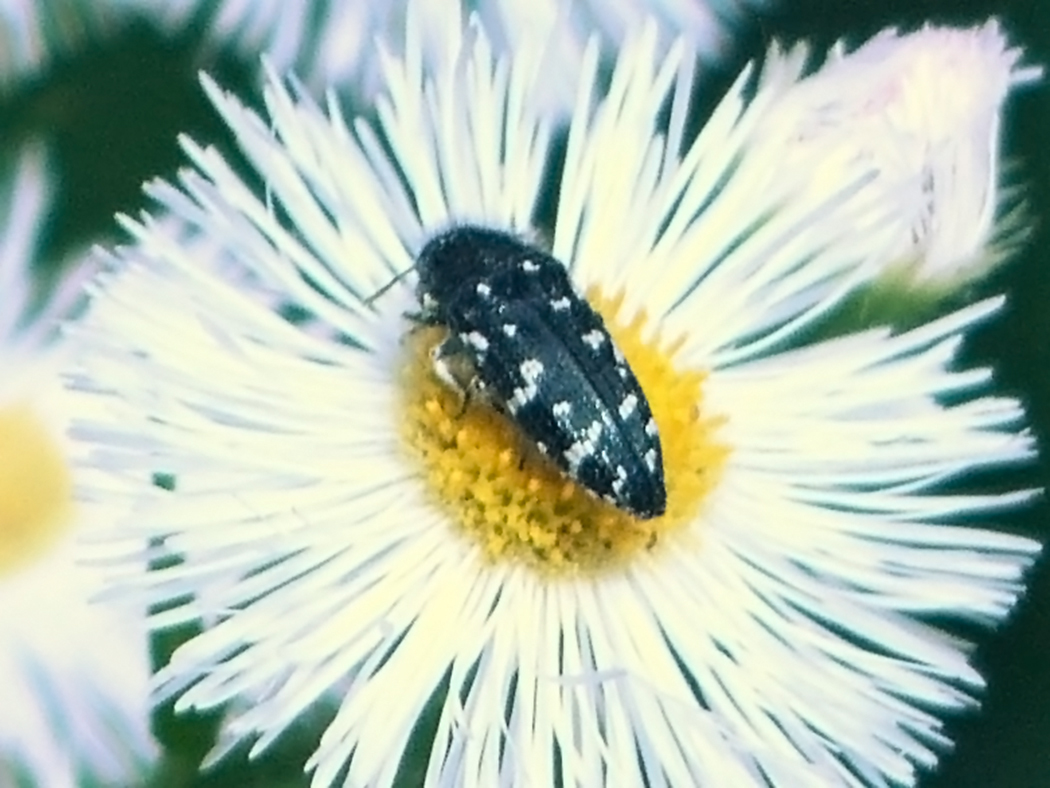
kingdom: Animalia
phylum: Arthropoda
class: Insecta
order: Coleoptera
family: Buprestidae
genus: Acmaeodera
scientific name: Acmaeodera ornata
